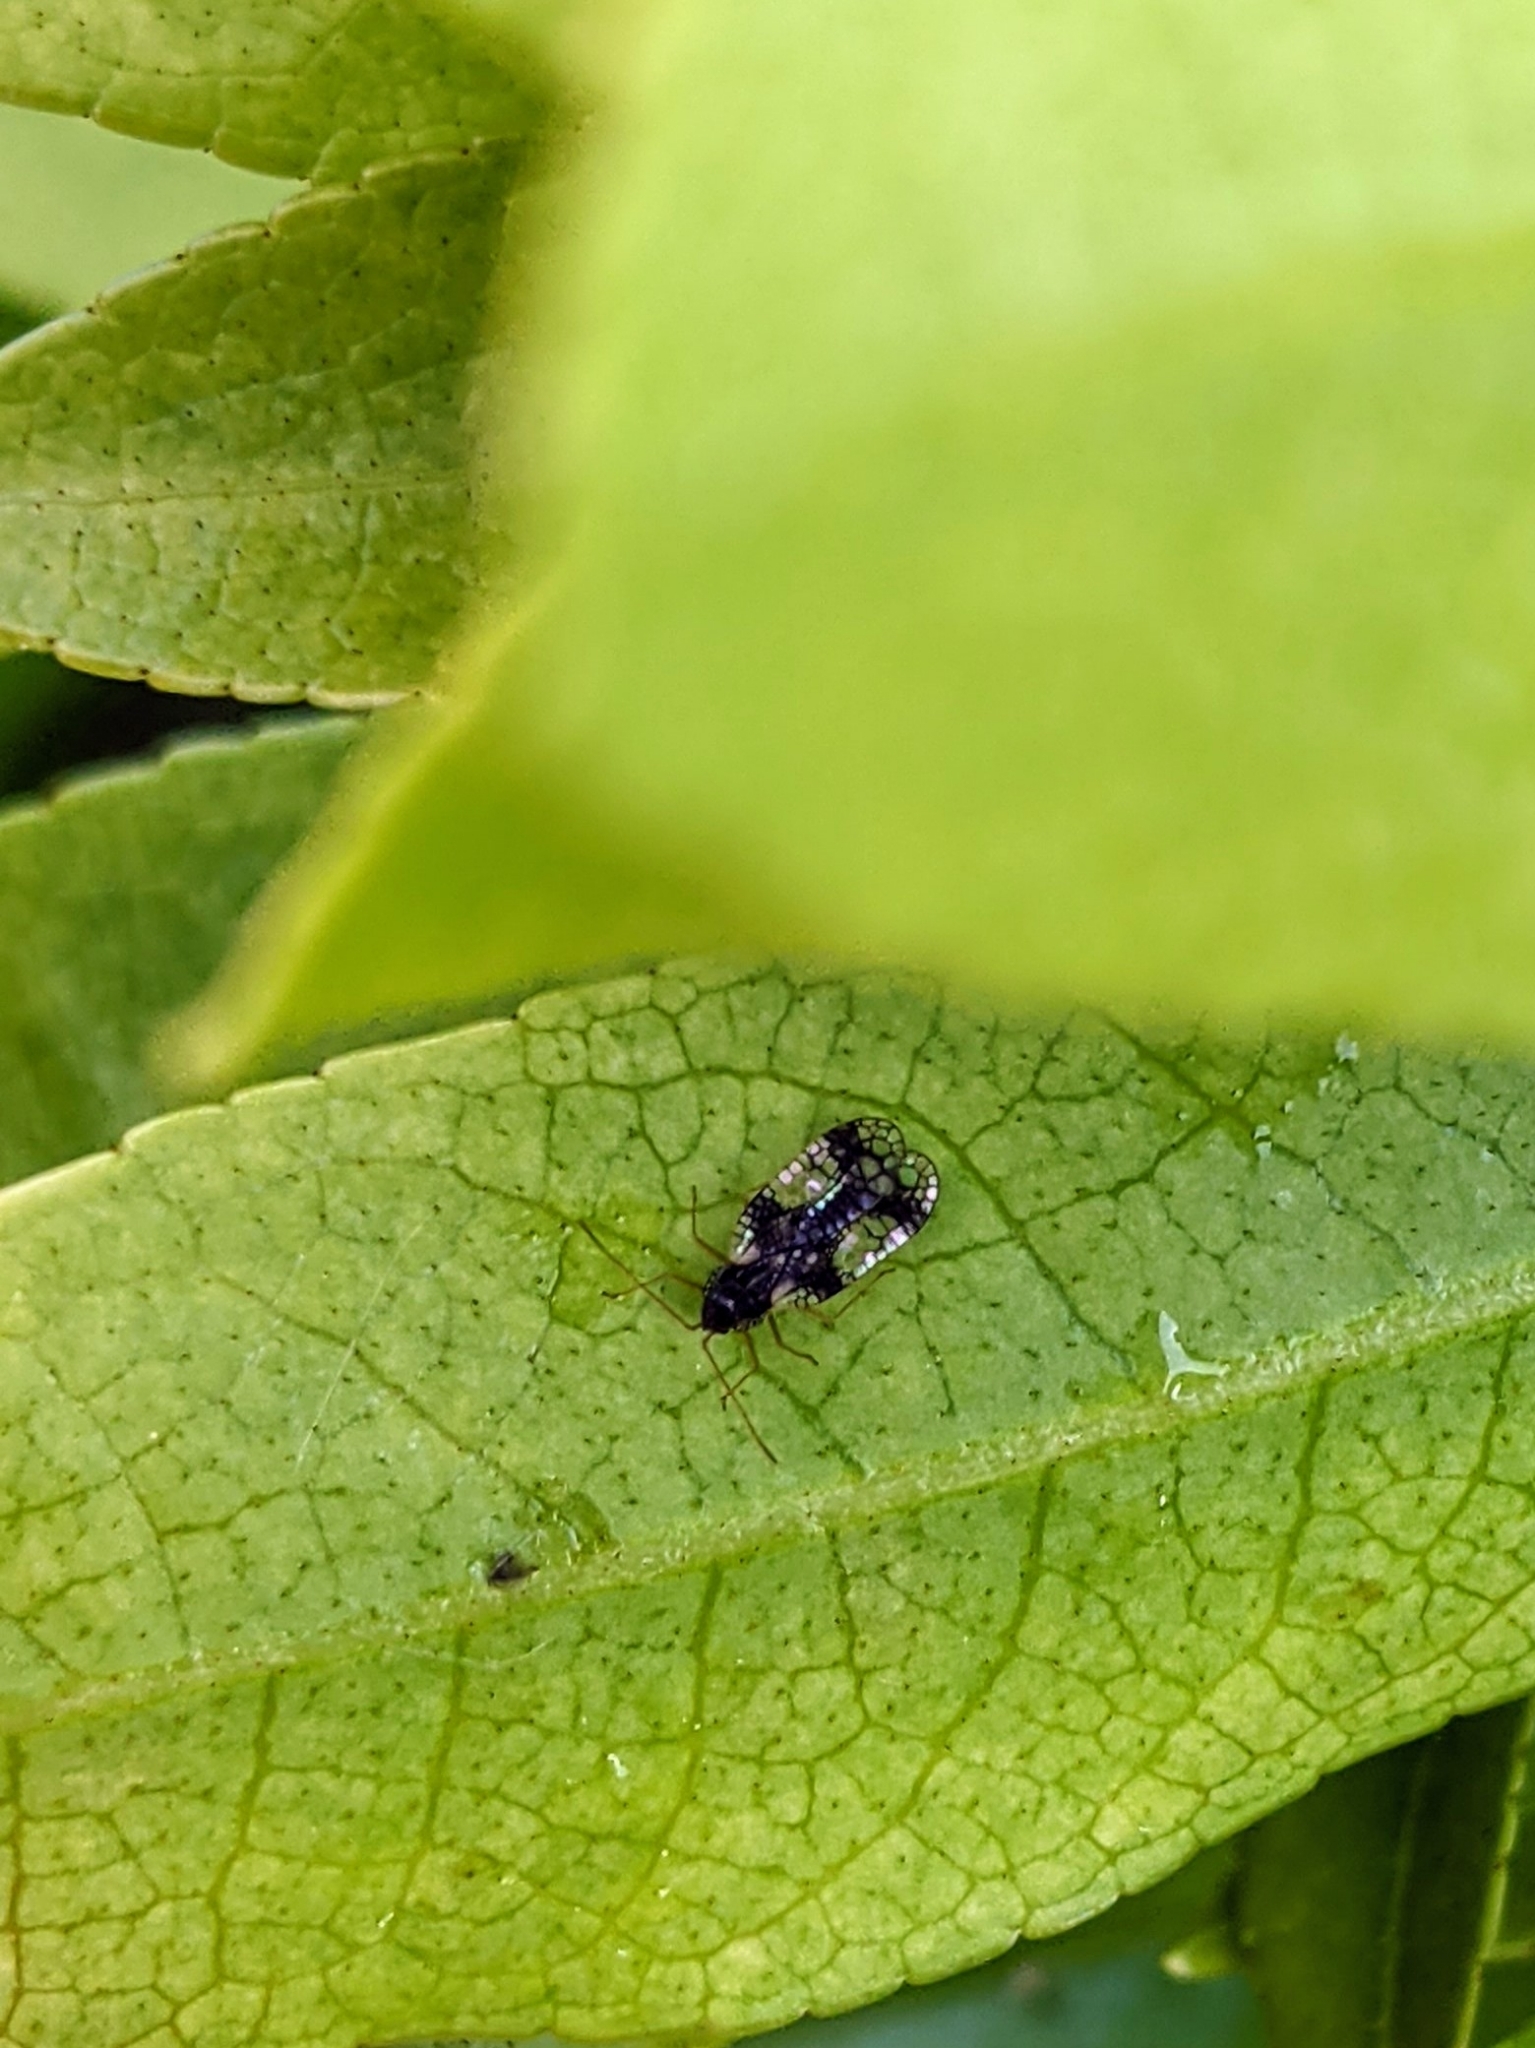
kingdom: Animalia
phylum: Arthropoda
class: Insecta
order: Hemiptera
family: Tingidae
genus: Stephanitis
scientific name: Stephanitis takeyai
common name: Andromeda lacebug
